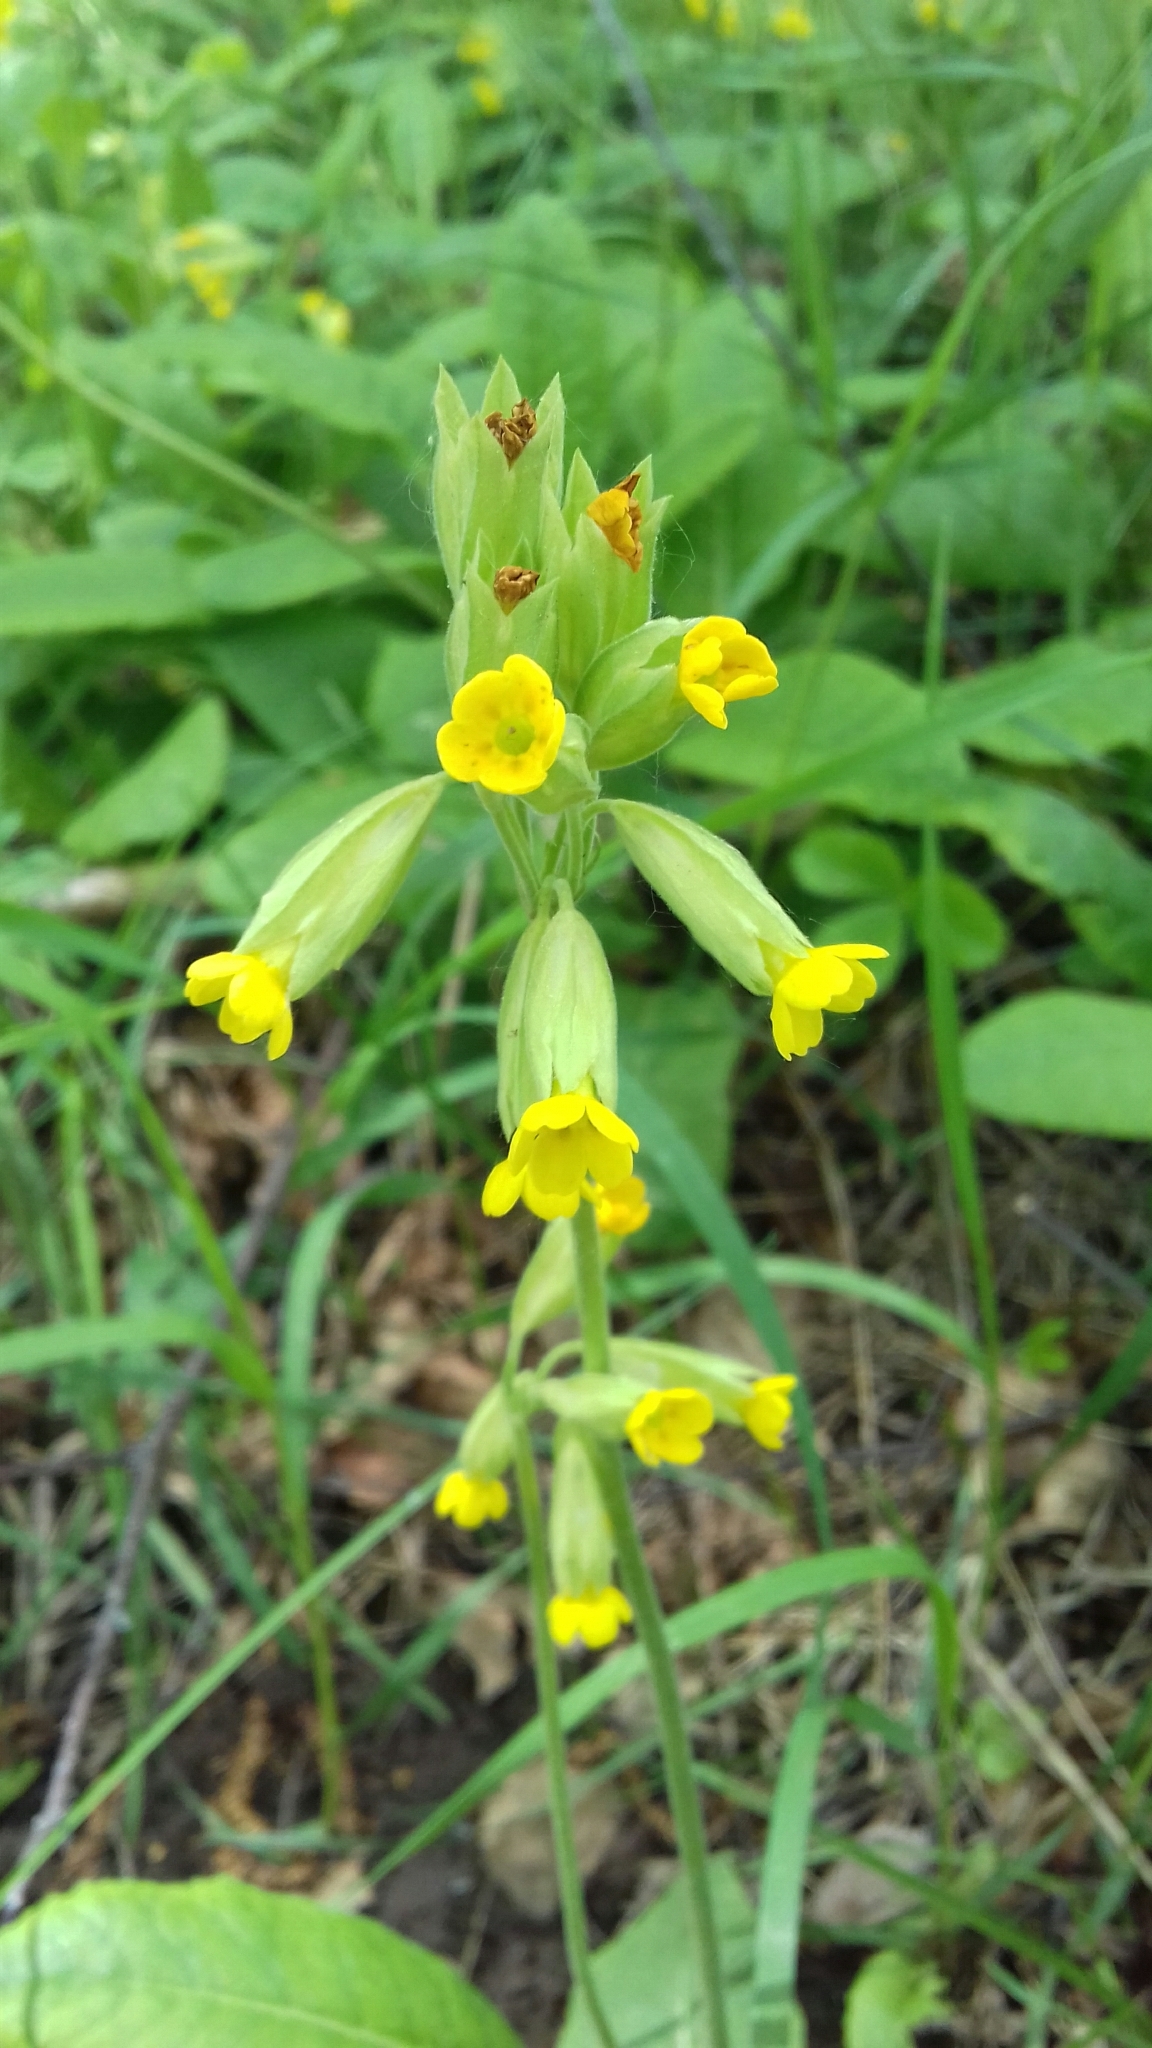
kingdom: Plantae
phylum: Tracheophyta
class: Magnoliopsida
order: Ericales
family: Primulaceae
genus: Primula
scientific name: Primula veris
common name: Cowslip
